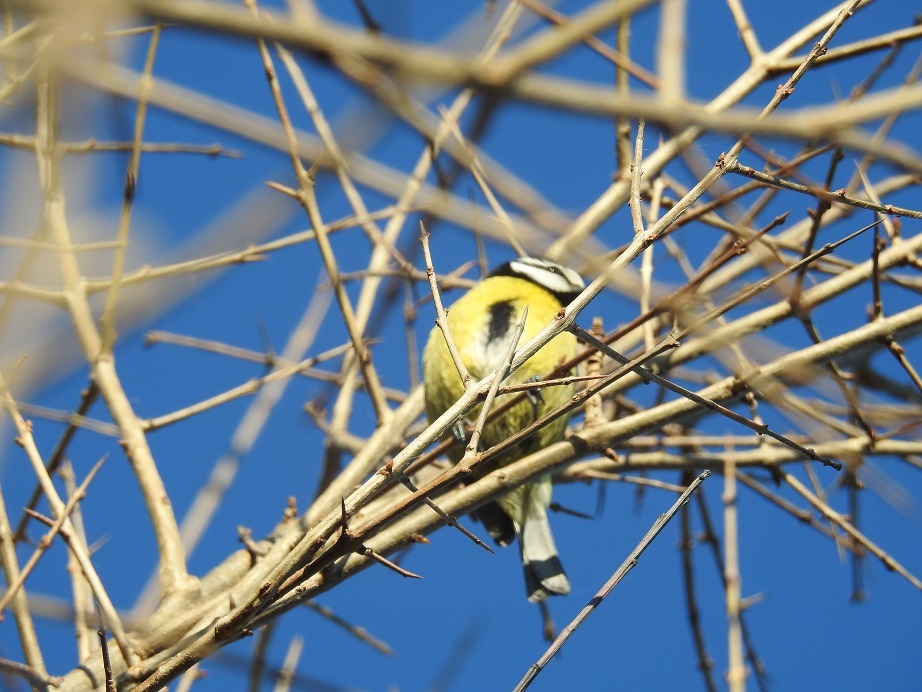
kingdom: Animalia
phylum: Chordata
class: Aves
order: Passeriformes
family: Paridae
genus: Cyanistes
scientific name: Cyanistes teneriffae
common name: African blue tit
